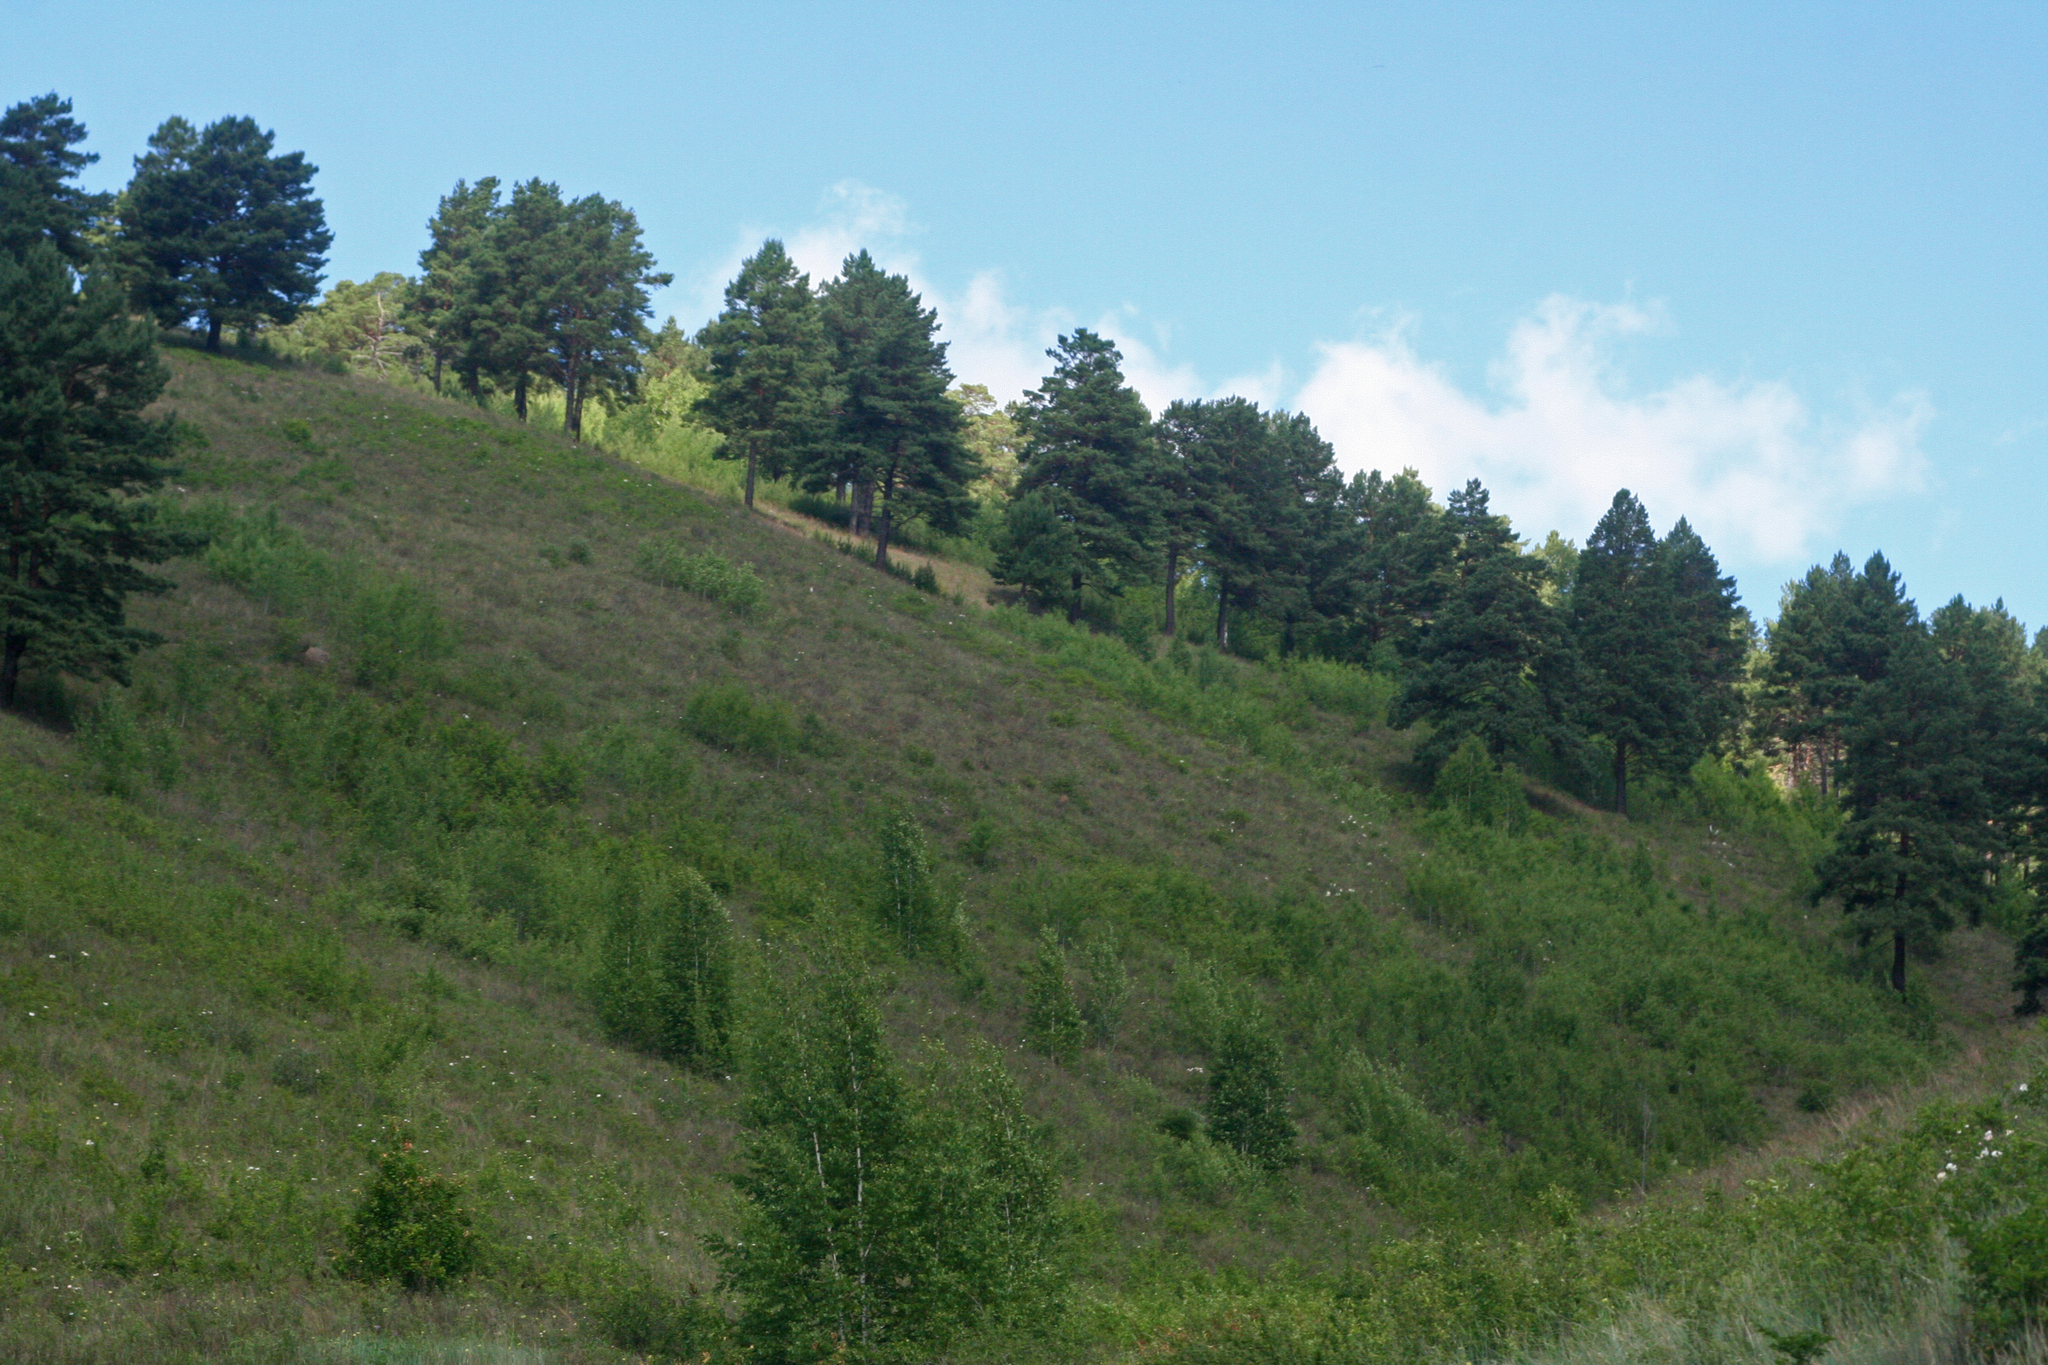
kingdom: Plantae
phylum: Tracheophyta
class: Pinopsida
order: Pinales
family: Pinaceae
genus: Pinus
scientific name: Pinus sylvestris
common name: Scots pine
